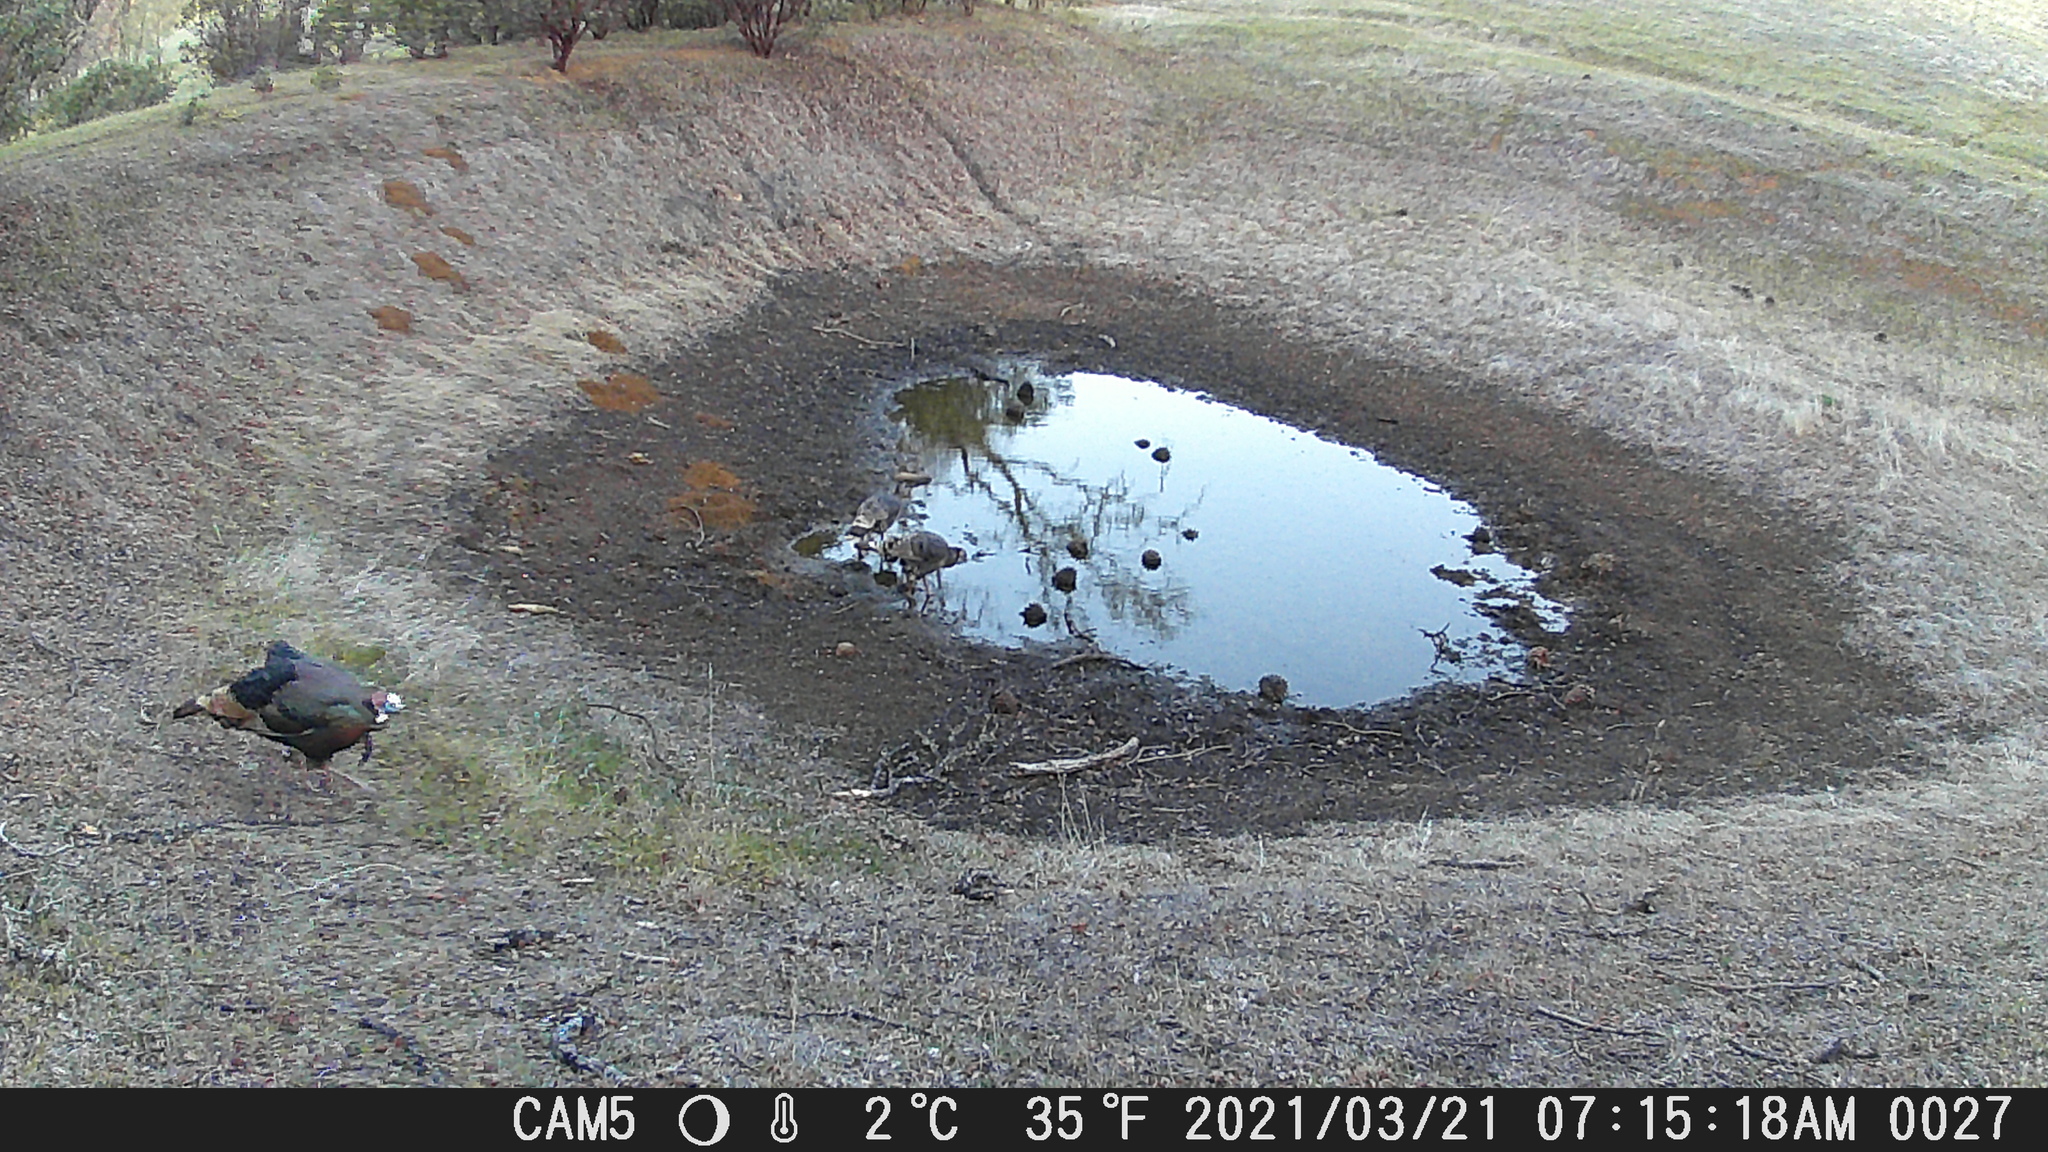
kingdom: Animalia
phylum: Chordata
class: Aves
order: Galliformes
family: Phasianidae
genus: Meleagris
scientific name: Meleagris gallopavo
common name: Wild turkey
